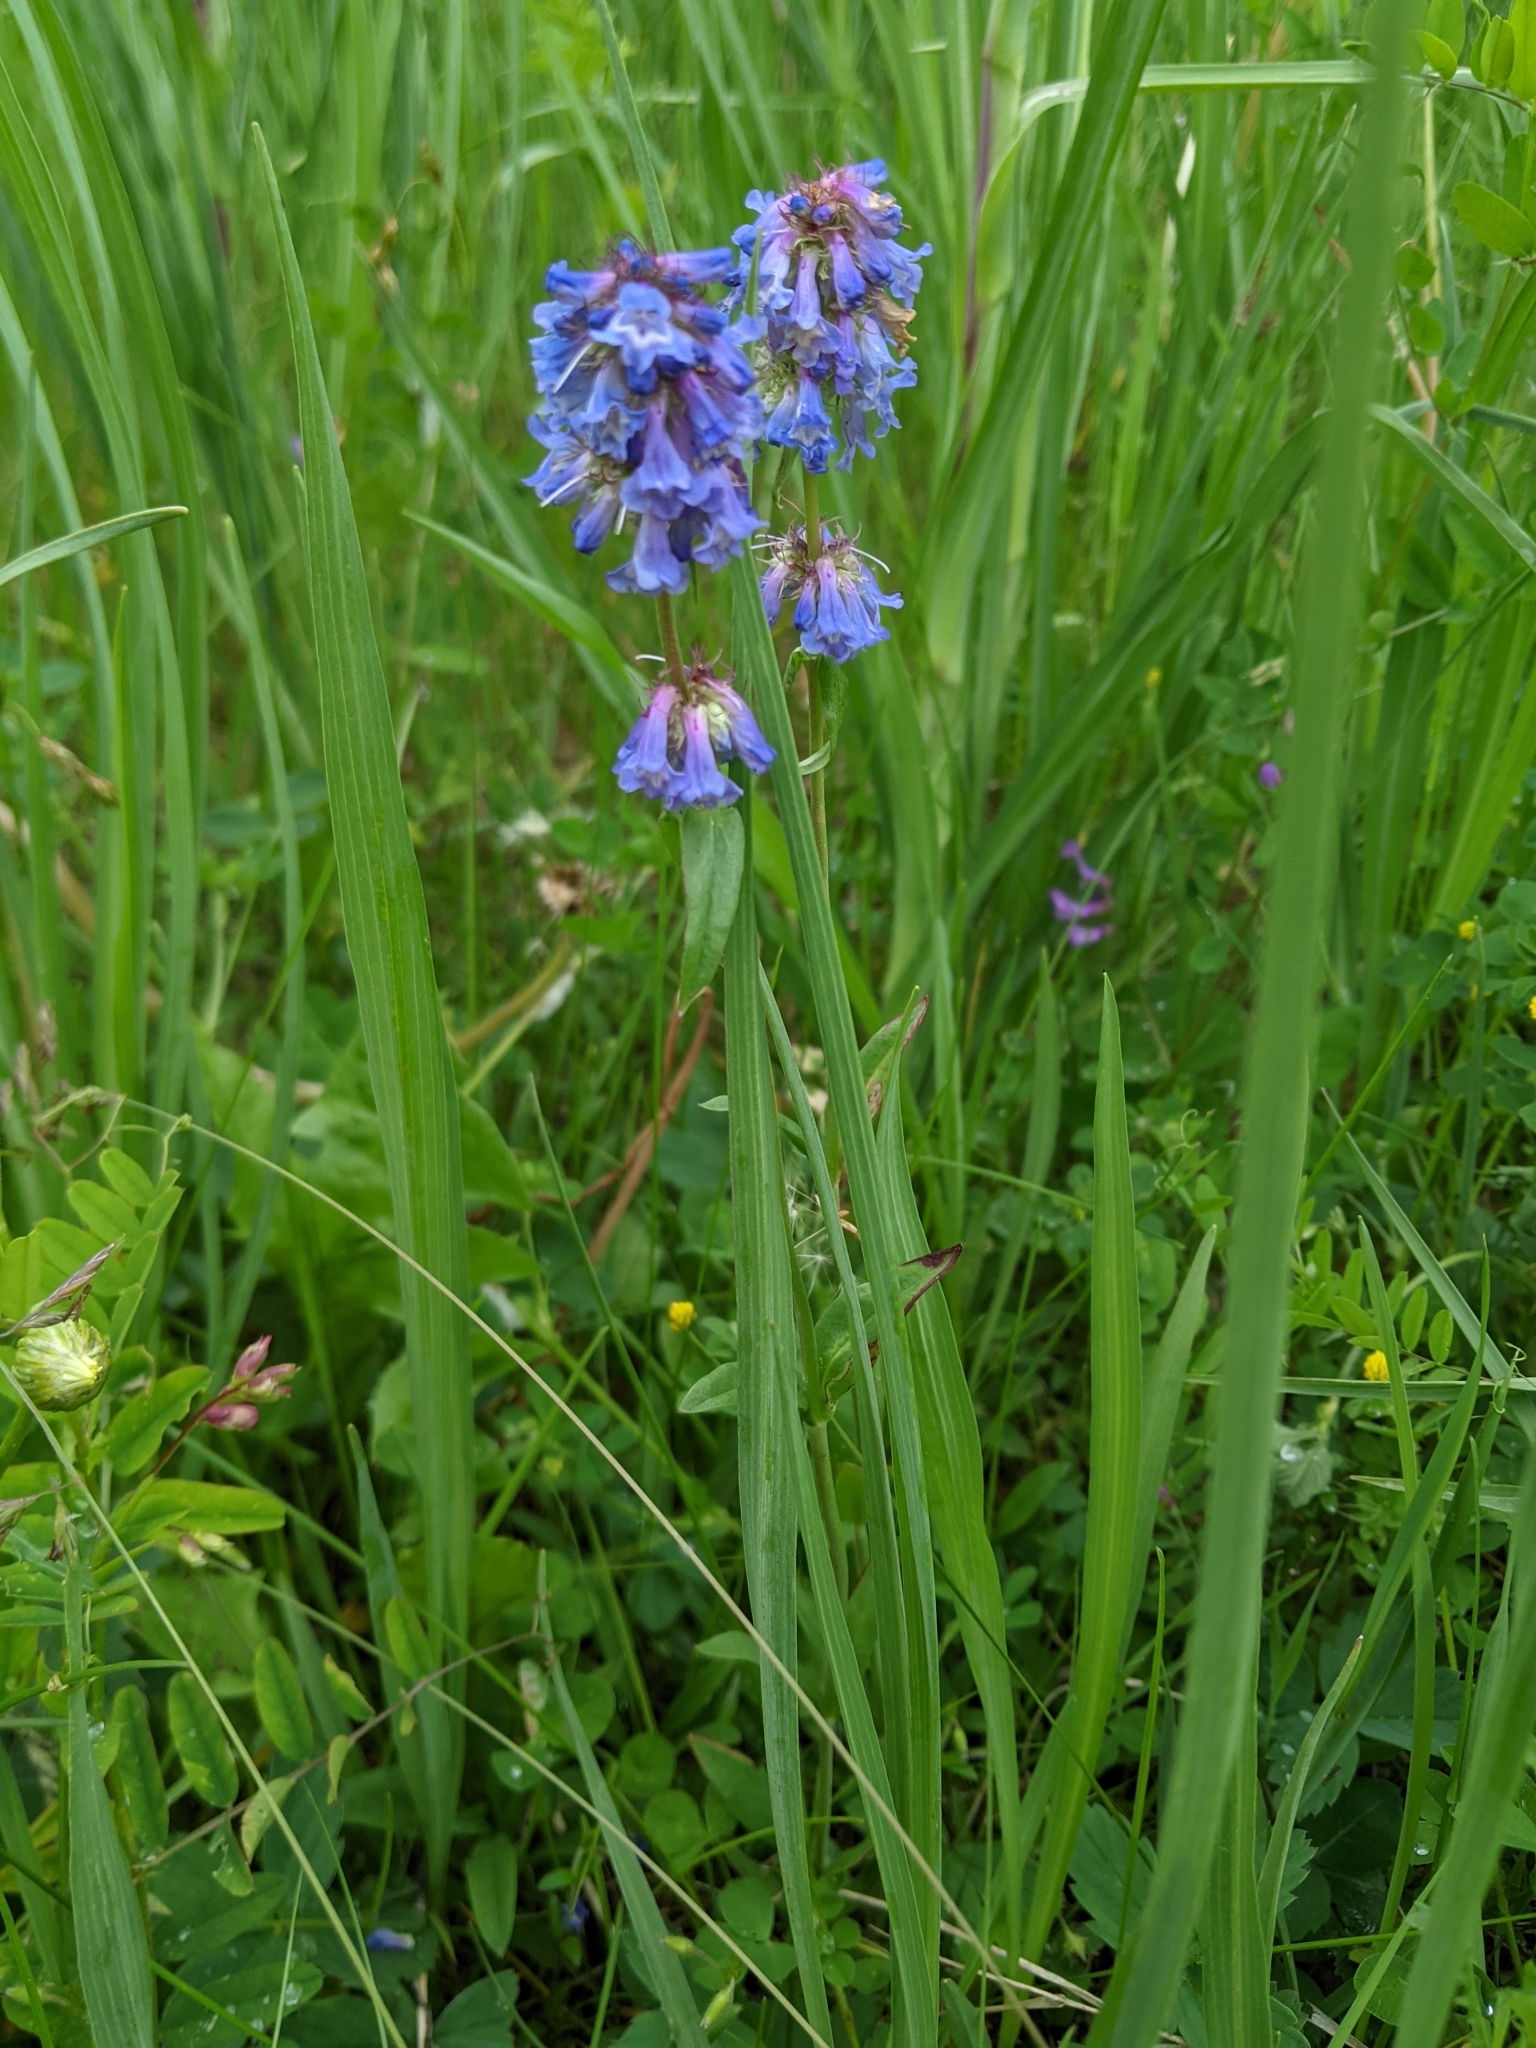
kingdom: Plantae
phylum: Tracheophyta
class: Magnoliopsida
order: Lamiales
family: Plantaginaceae
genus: Penstemon
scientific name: Penstemon procerus
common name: Small-flower penstemon
